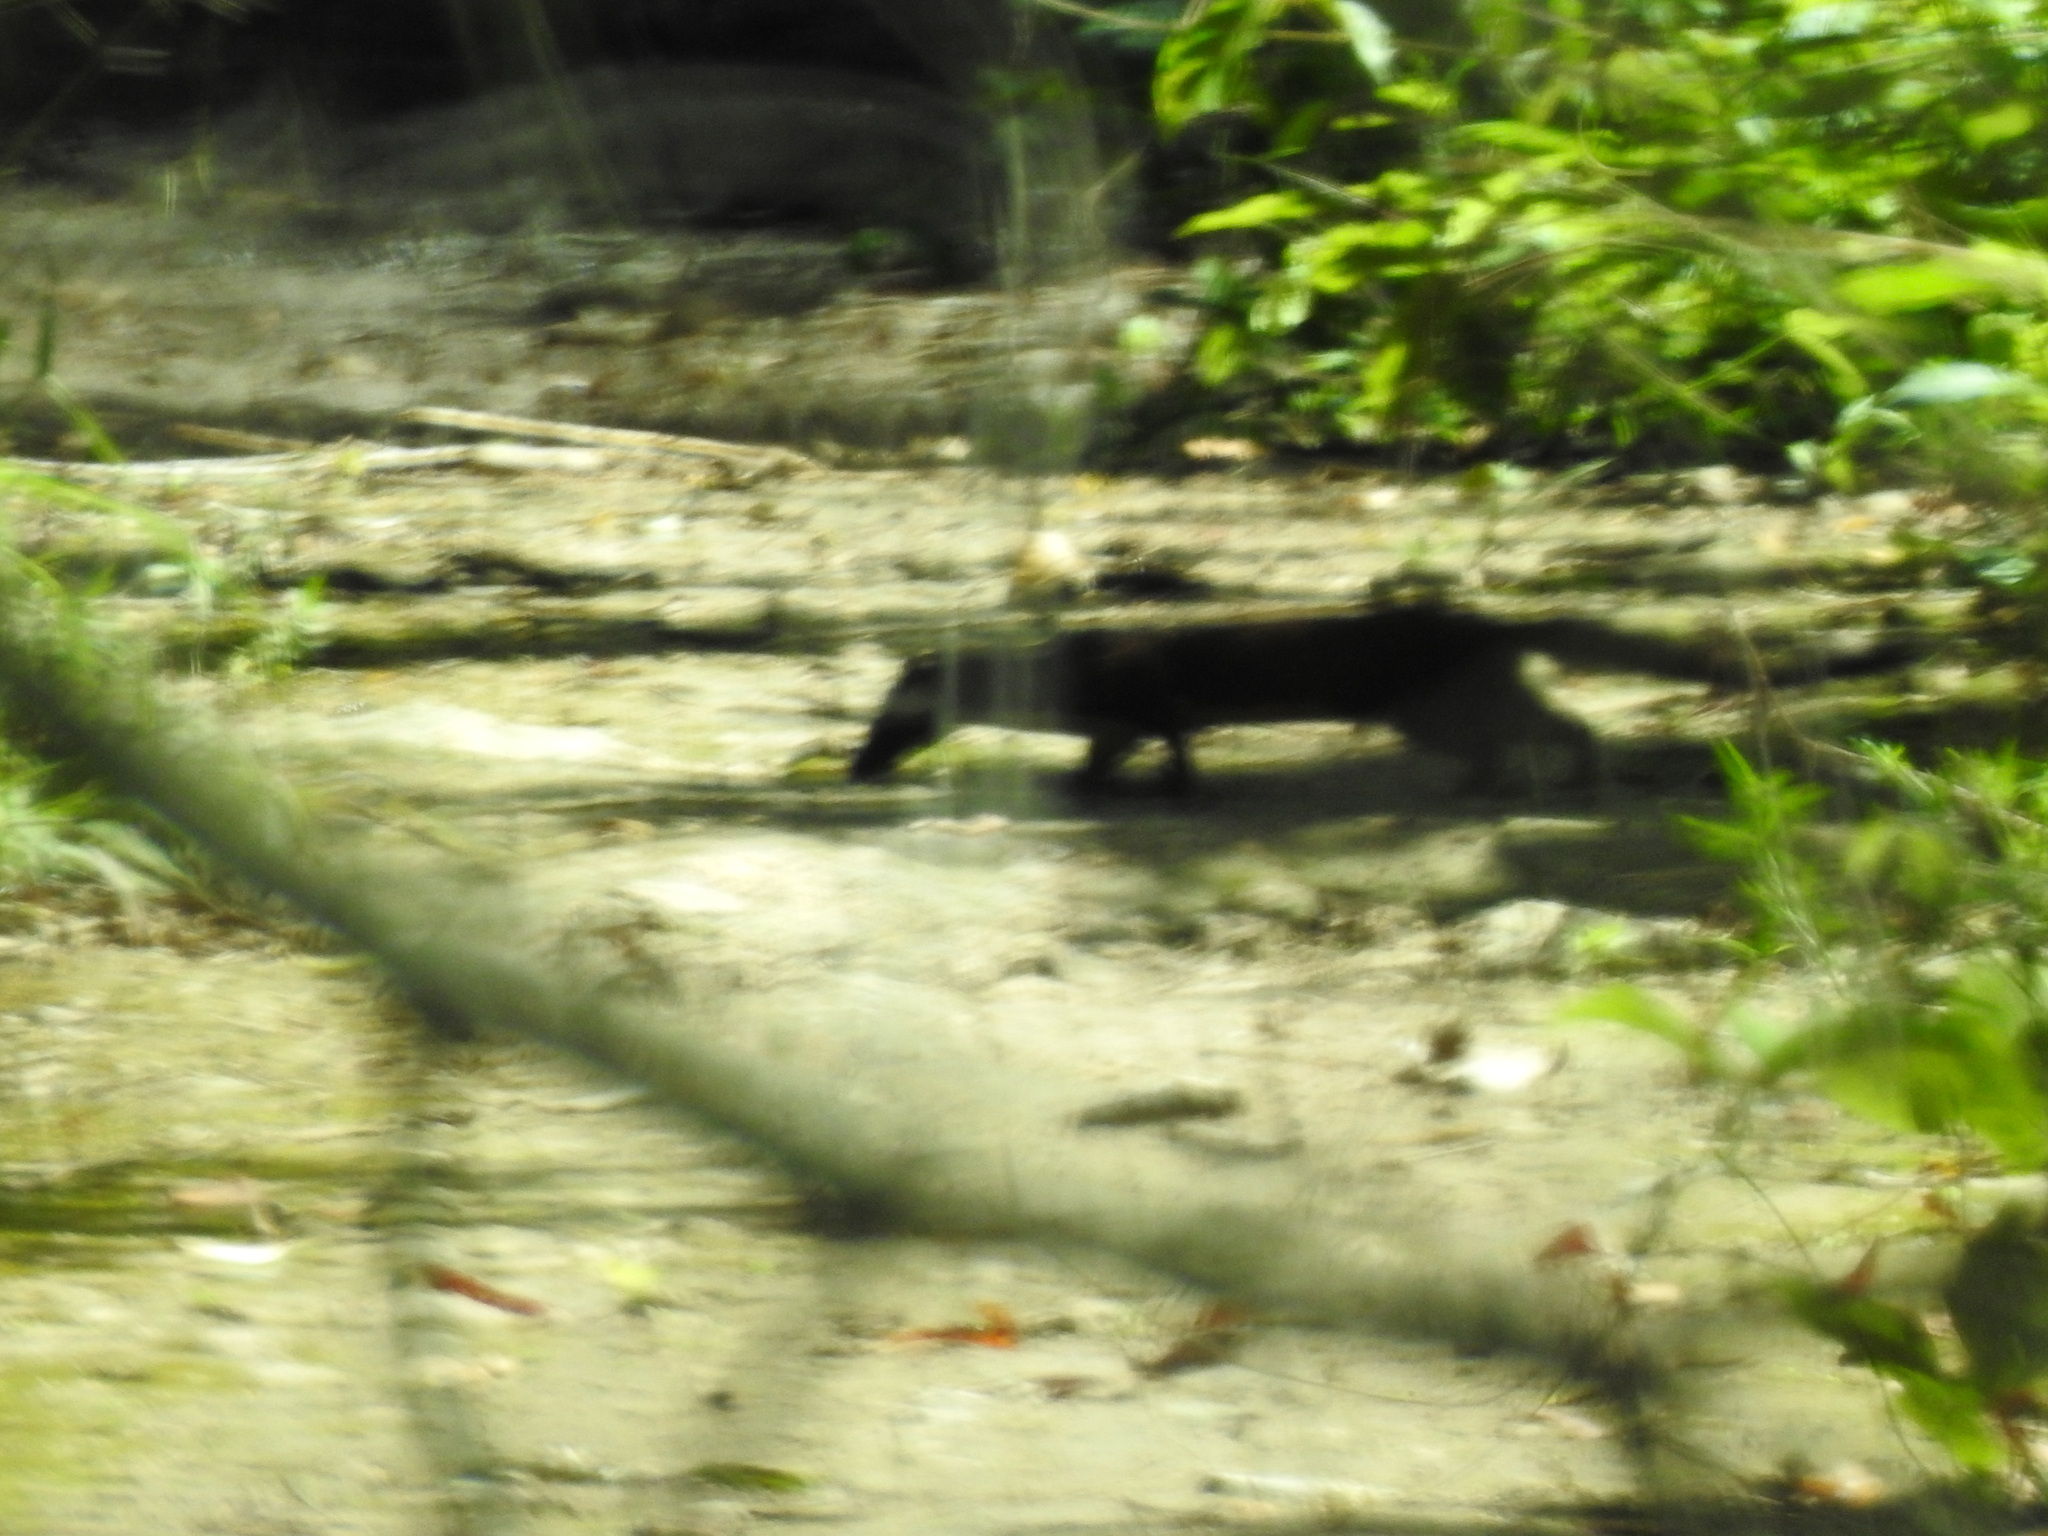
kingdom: Animalia
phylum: Chordata
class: Mammalia
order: Carnivora
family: Mustelidae
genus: Mustela
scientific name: Mustela
